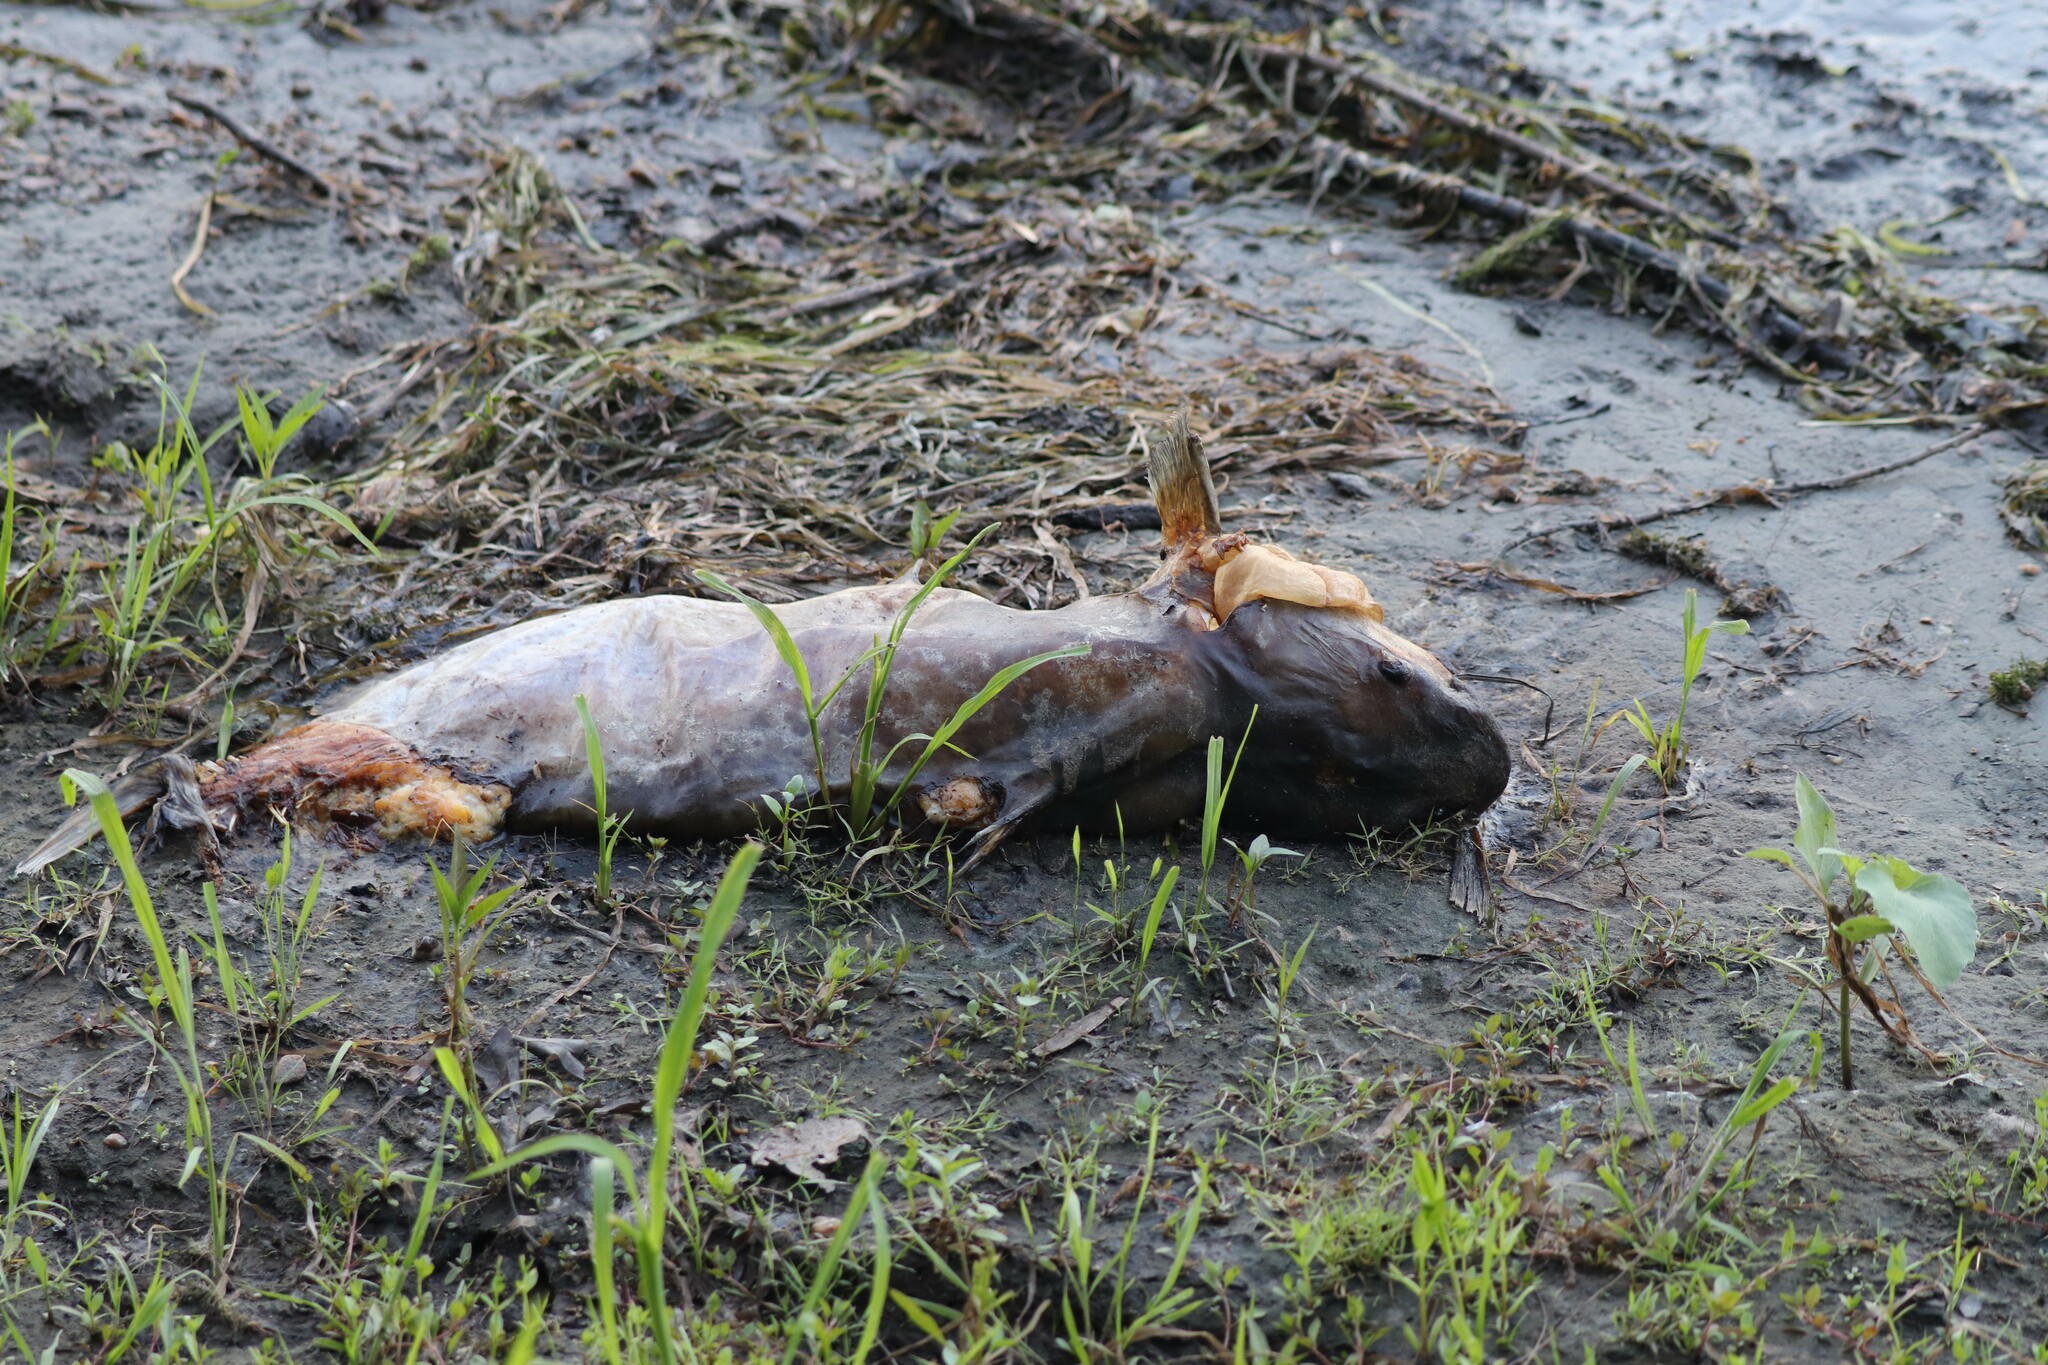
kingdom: Animalia
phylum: Chordata
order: Siluriformes
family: Ictaluridae
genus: Ictalurus
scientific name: Ictalurus punctatus
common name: Channel catfish
